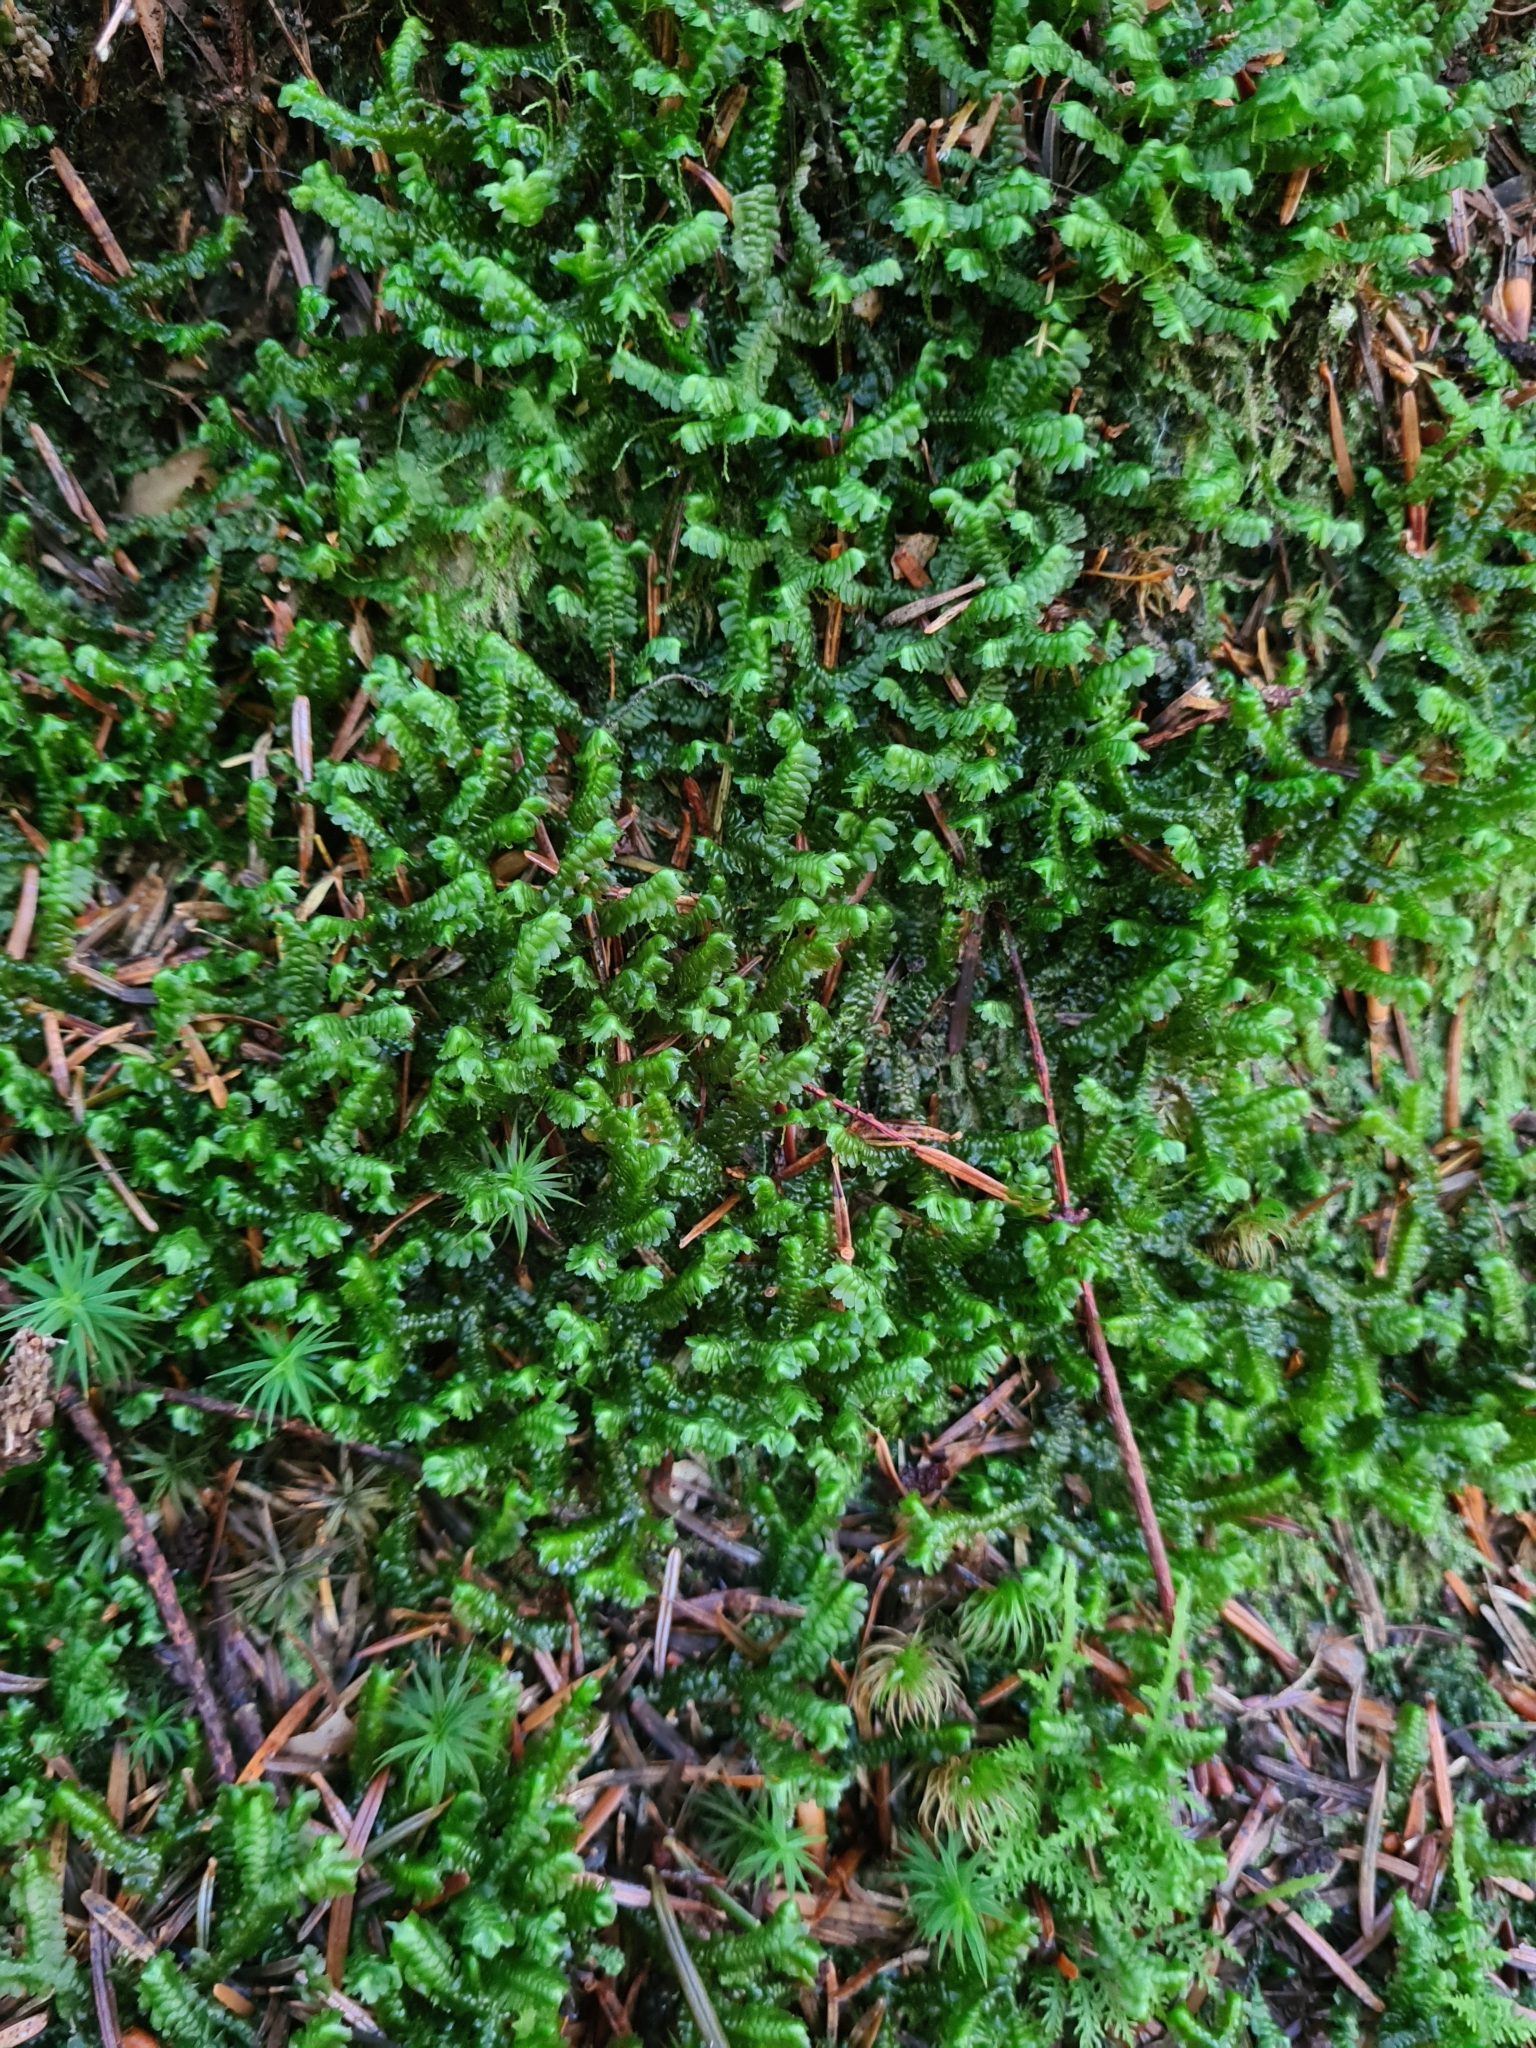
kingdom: Plantae
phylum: Marchantiophyta
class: Jungermanniopsida
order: Jungermanniales
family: Lepidoziaceae
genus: Bazzania
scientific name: Bazzania trilobata
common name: Three-lobed whipwort
